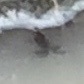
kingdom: Animalia
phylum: Chordata
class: Amphibia
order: Anura
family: Ranidae
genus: Lithobates
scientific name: Lithobates
